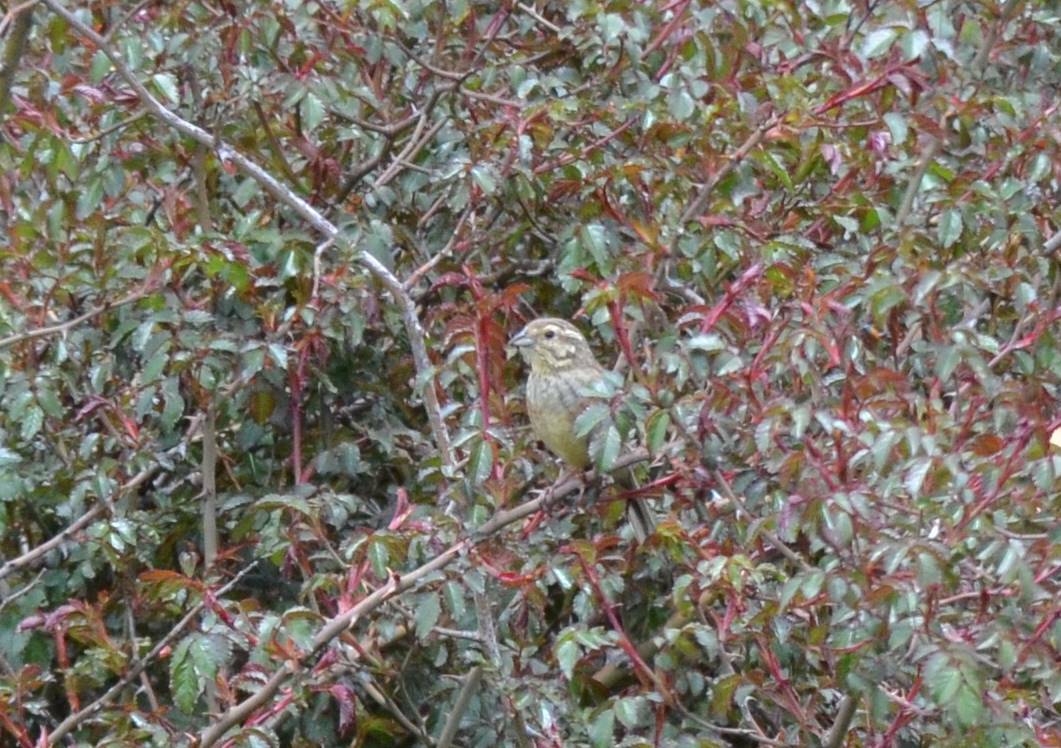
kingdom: Animalia
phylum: Chordata
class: Aves
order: Passeriformes
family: Emberizidae
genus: Emberiza
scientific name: Emberiza cirlus
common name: Cirl bunting
